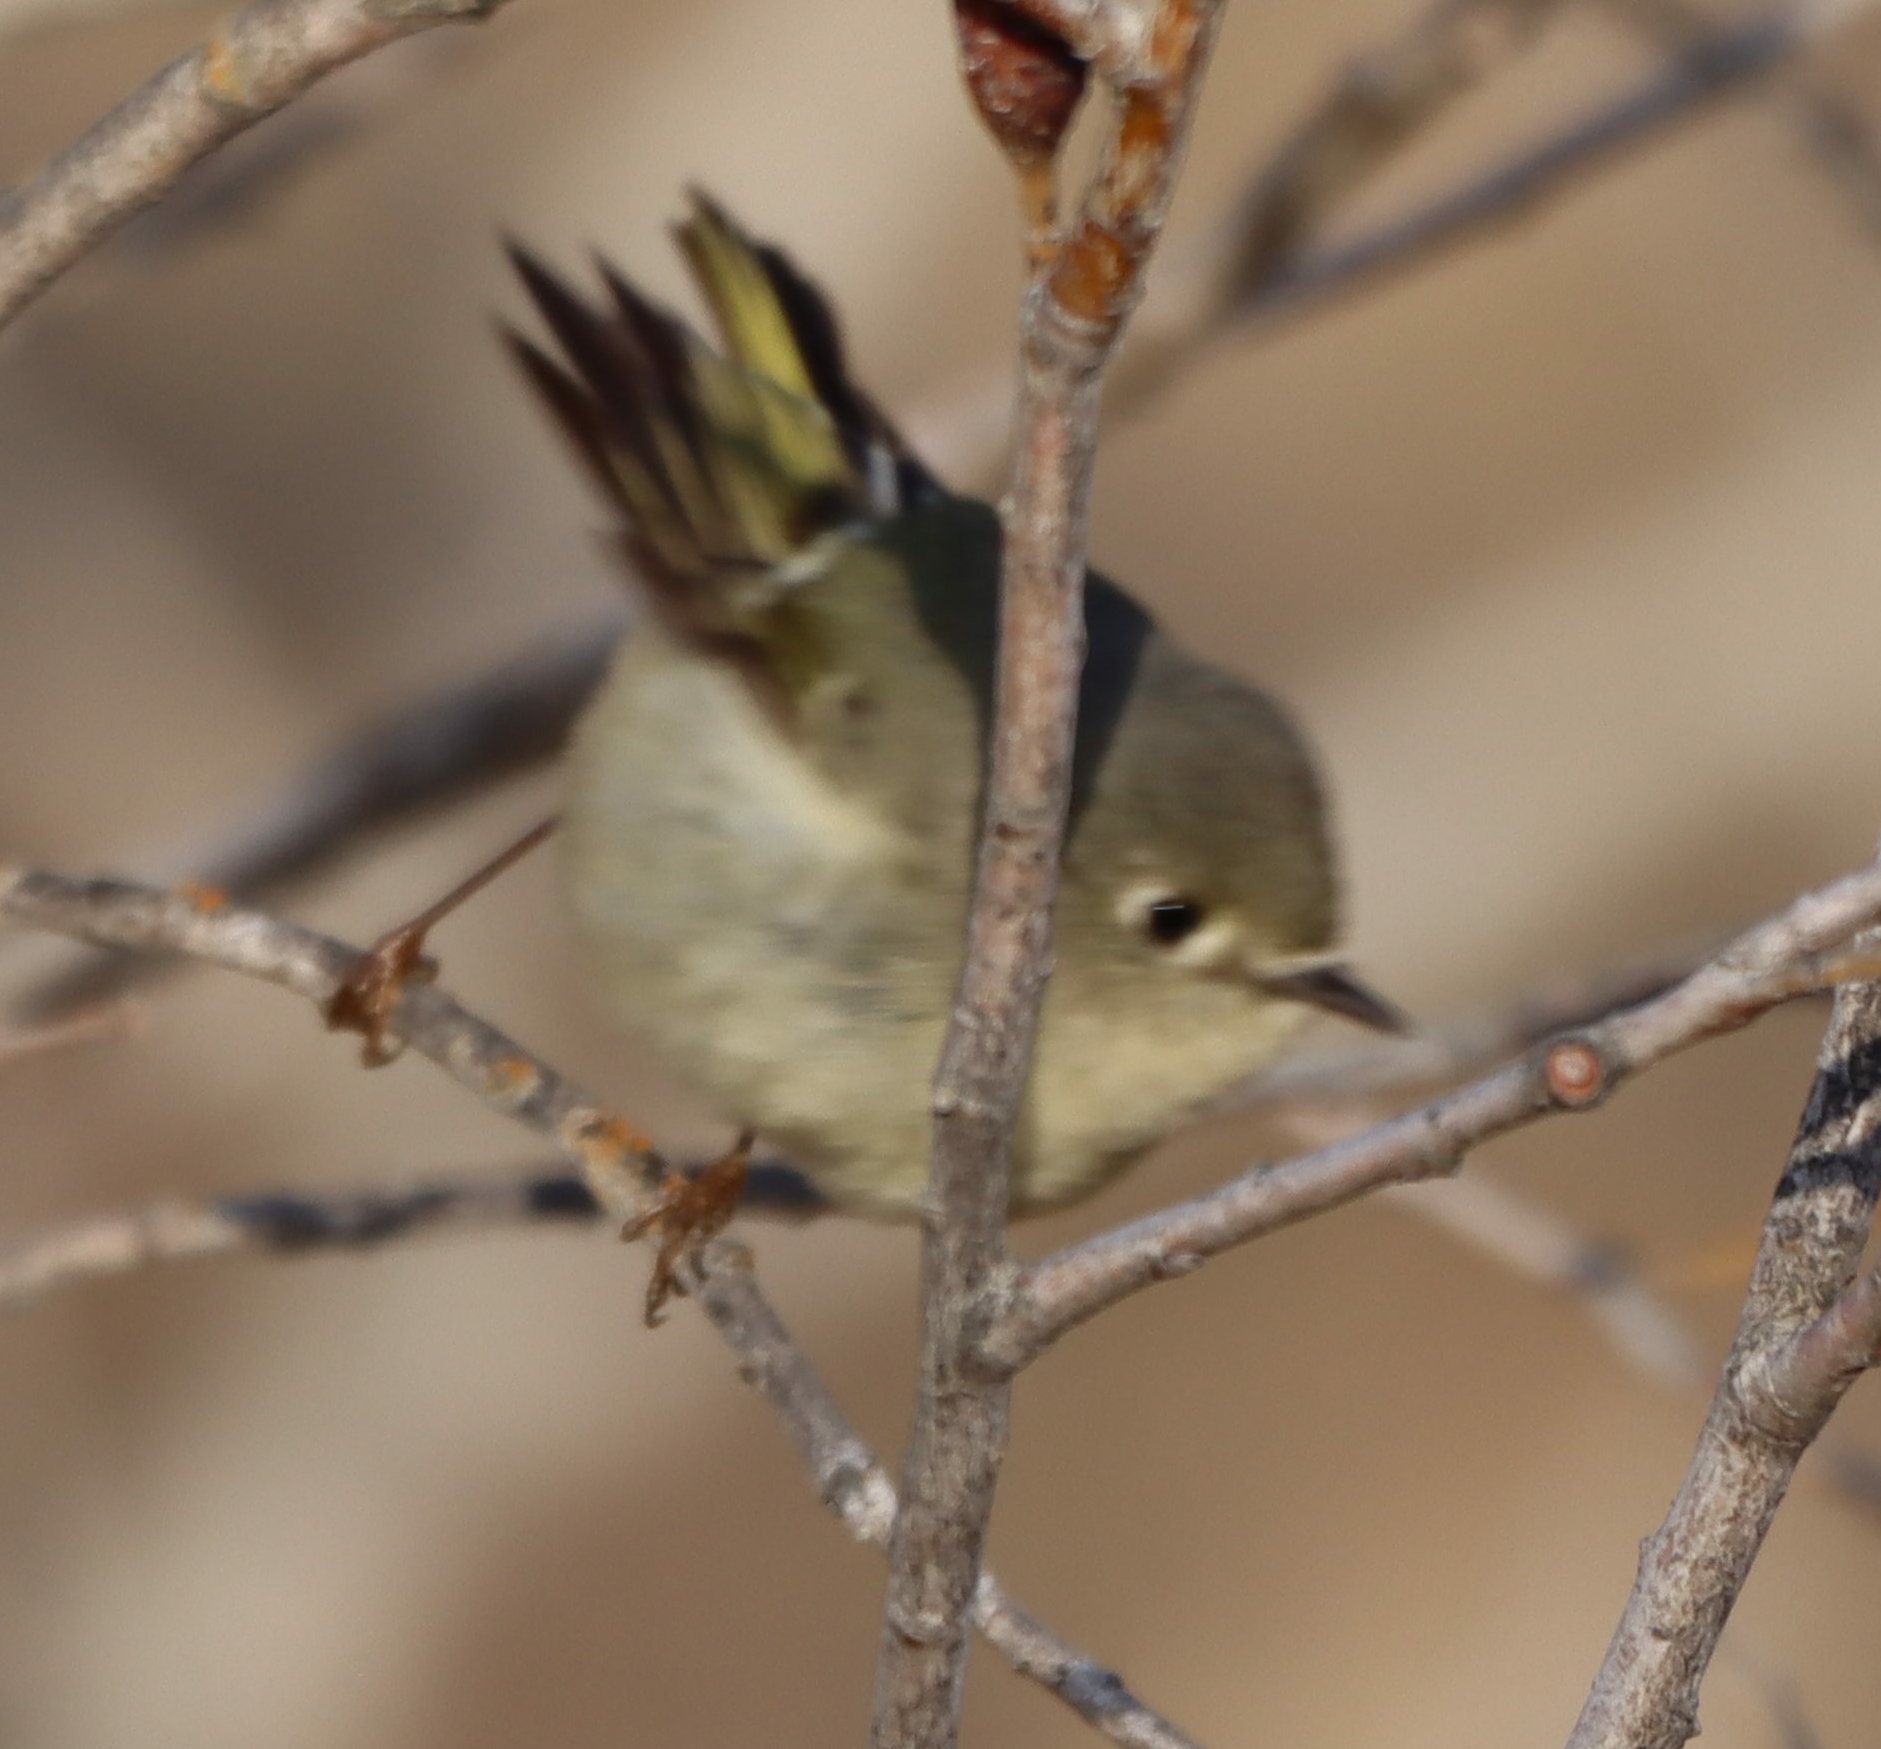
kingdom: Animalia
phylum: Chordata
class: Aves
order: Passeriformes
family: Regulidae
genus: Regulus
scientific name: Regulus calendula
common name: Ruby-crowned kinglet
